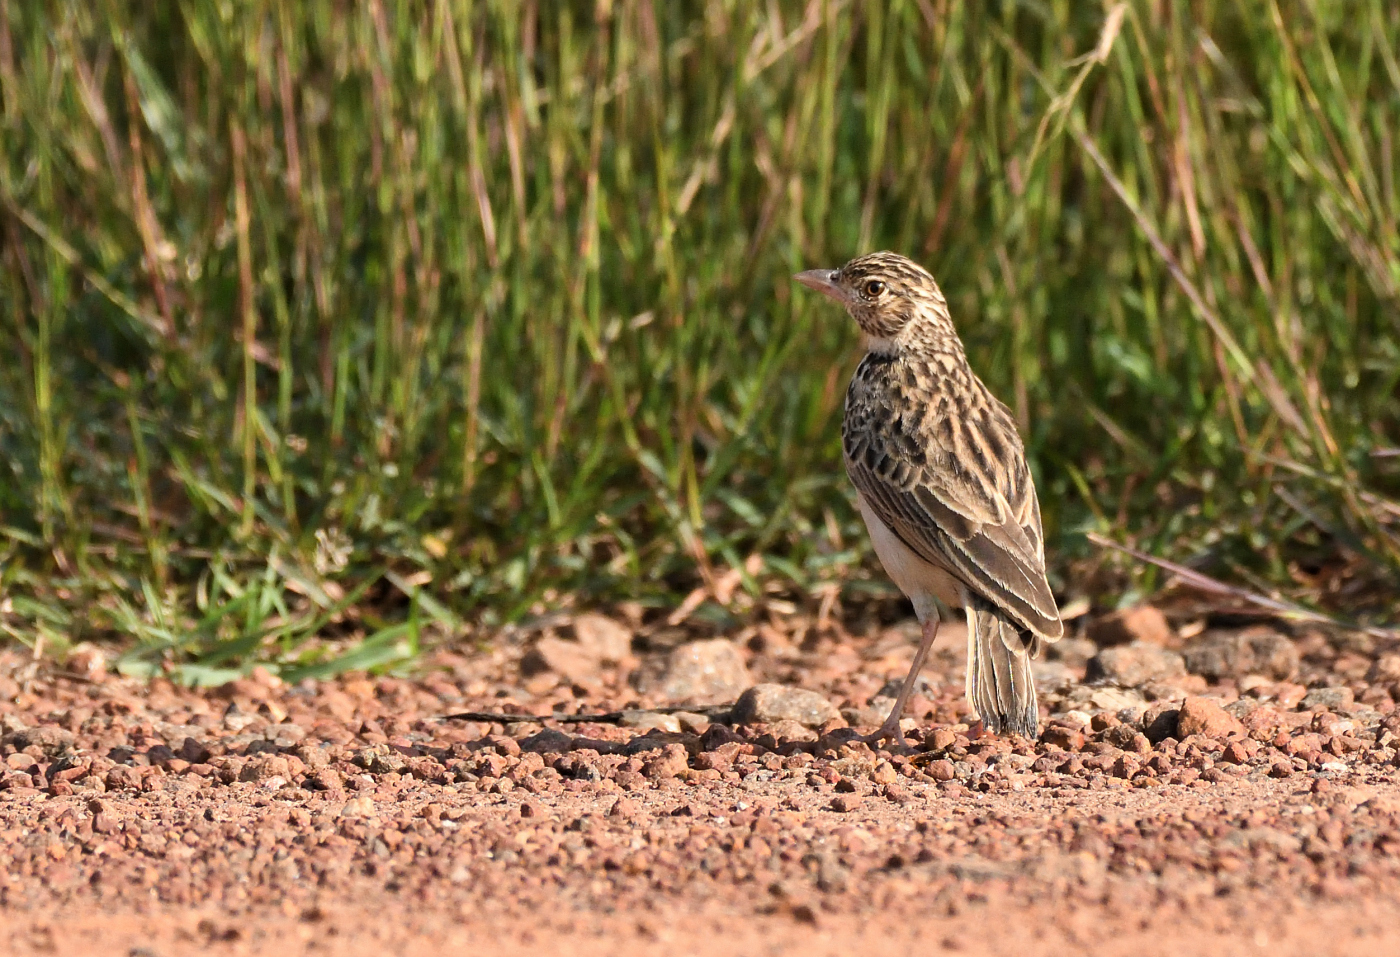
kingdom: Animalia
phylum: Chordata
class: Aves
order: Passeriformes
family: Alaudidae
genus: Mirafra
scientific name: Mirafra affinis
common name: Jerdon's bushlark
